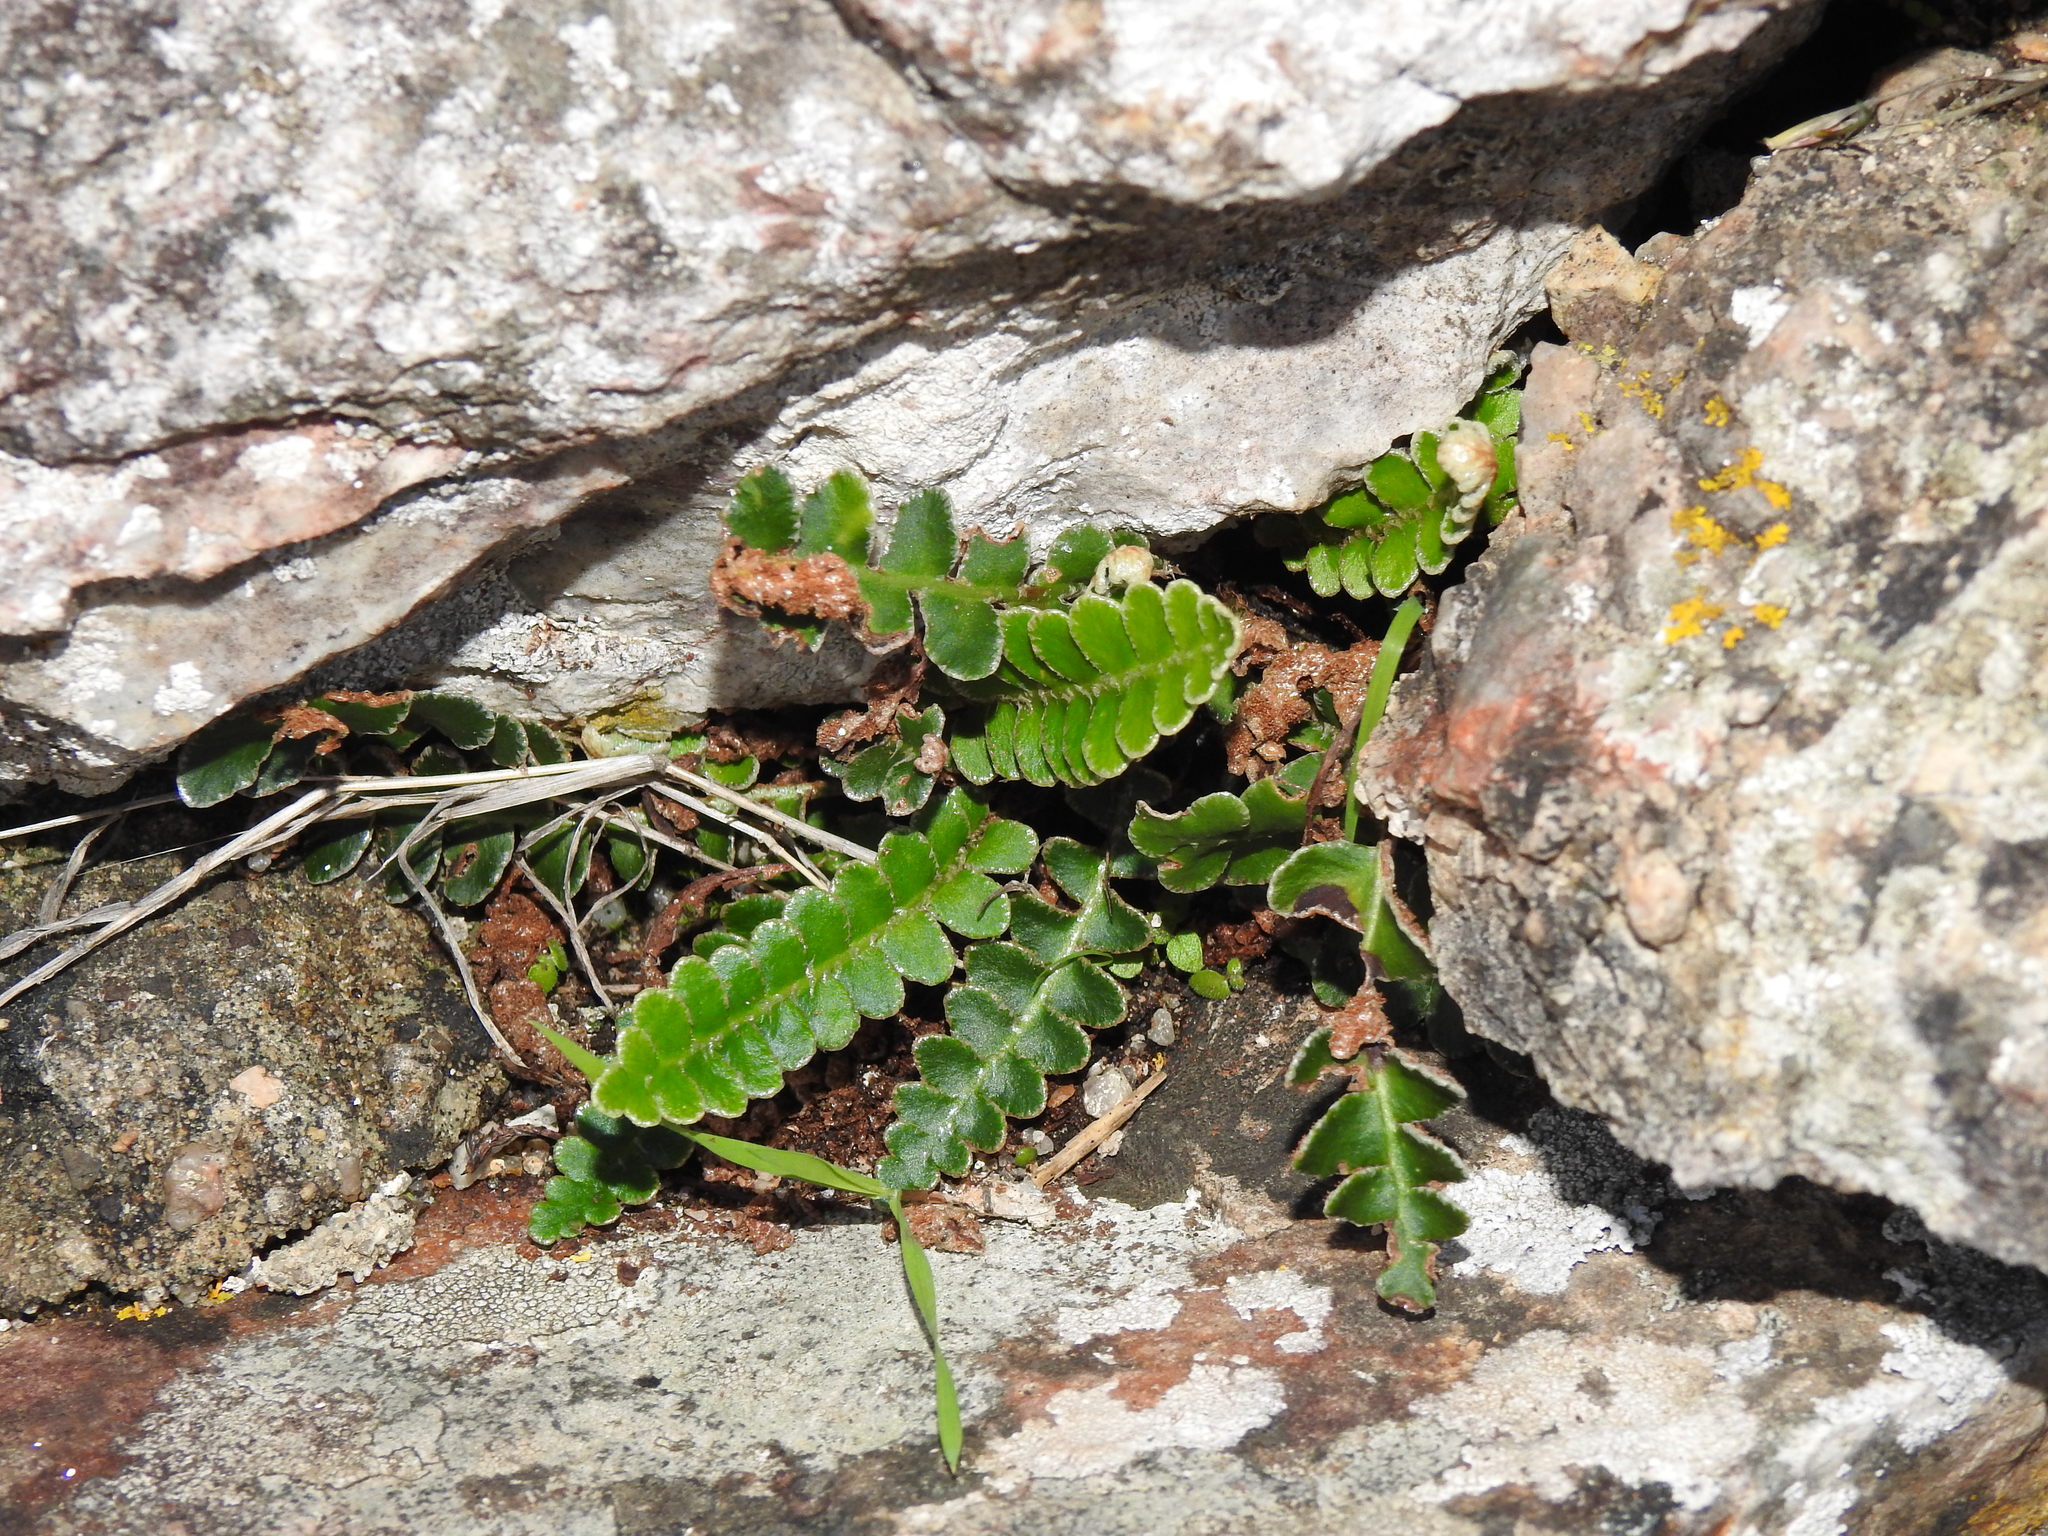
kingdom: Plantae
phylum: Tracheophyta
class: Polypodiopsida
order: Polypodiales
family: Aspleniaceae
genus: Asplenium
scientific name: Asplenium ceterach
